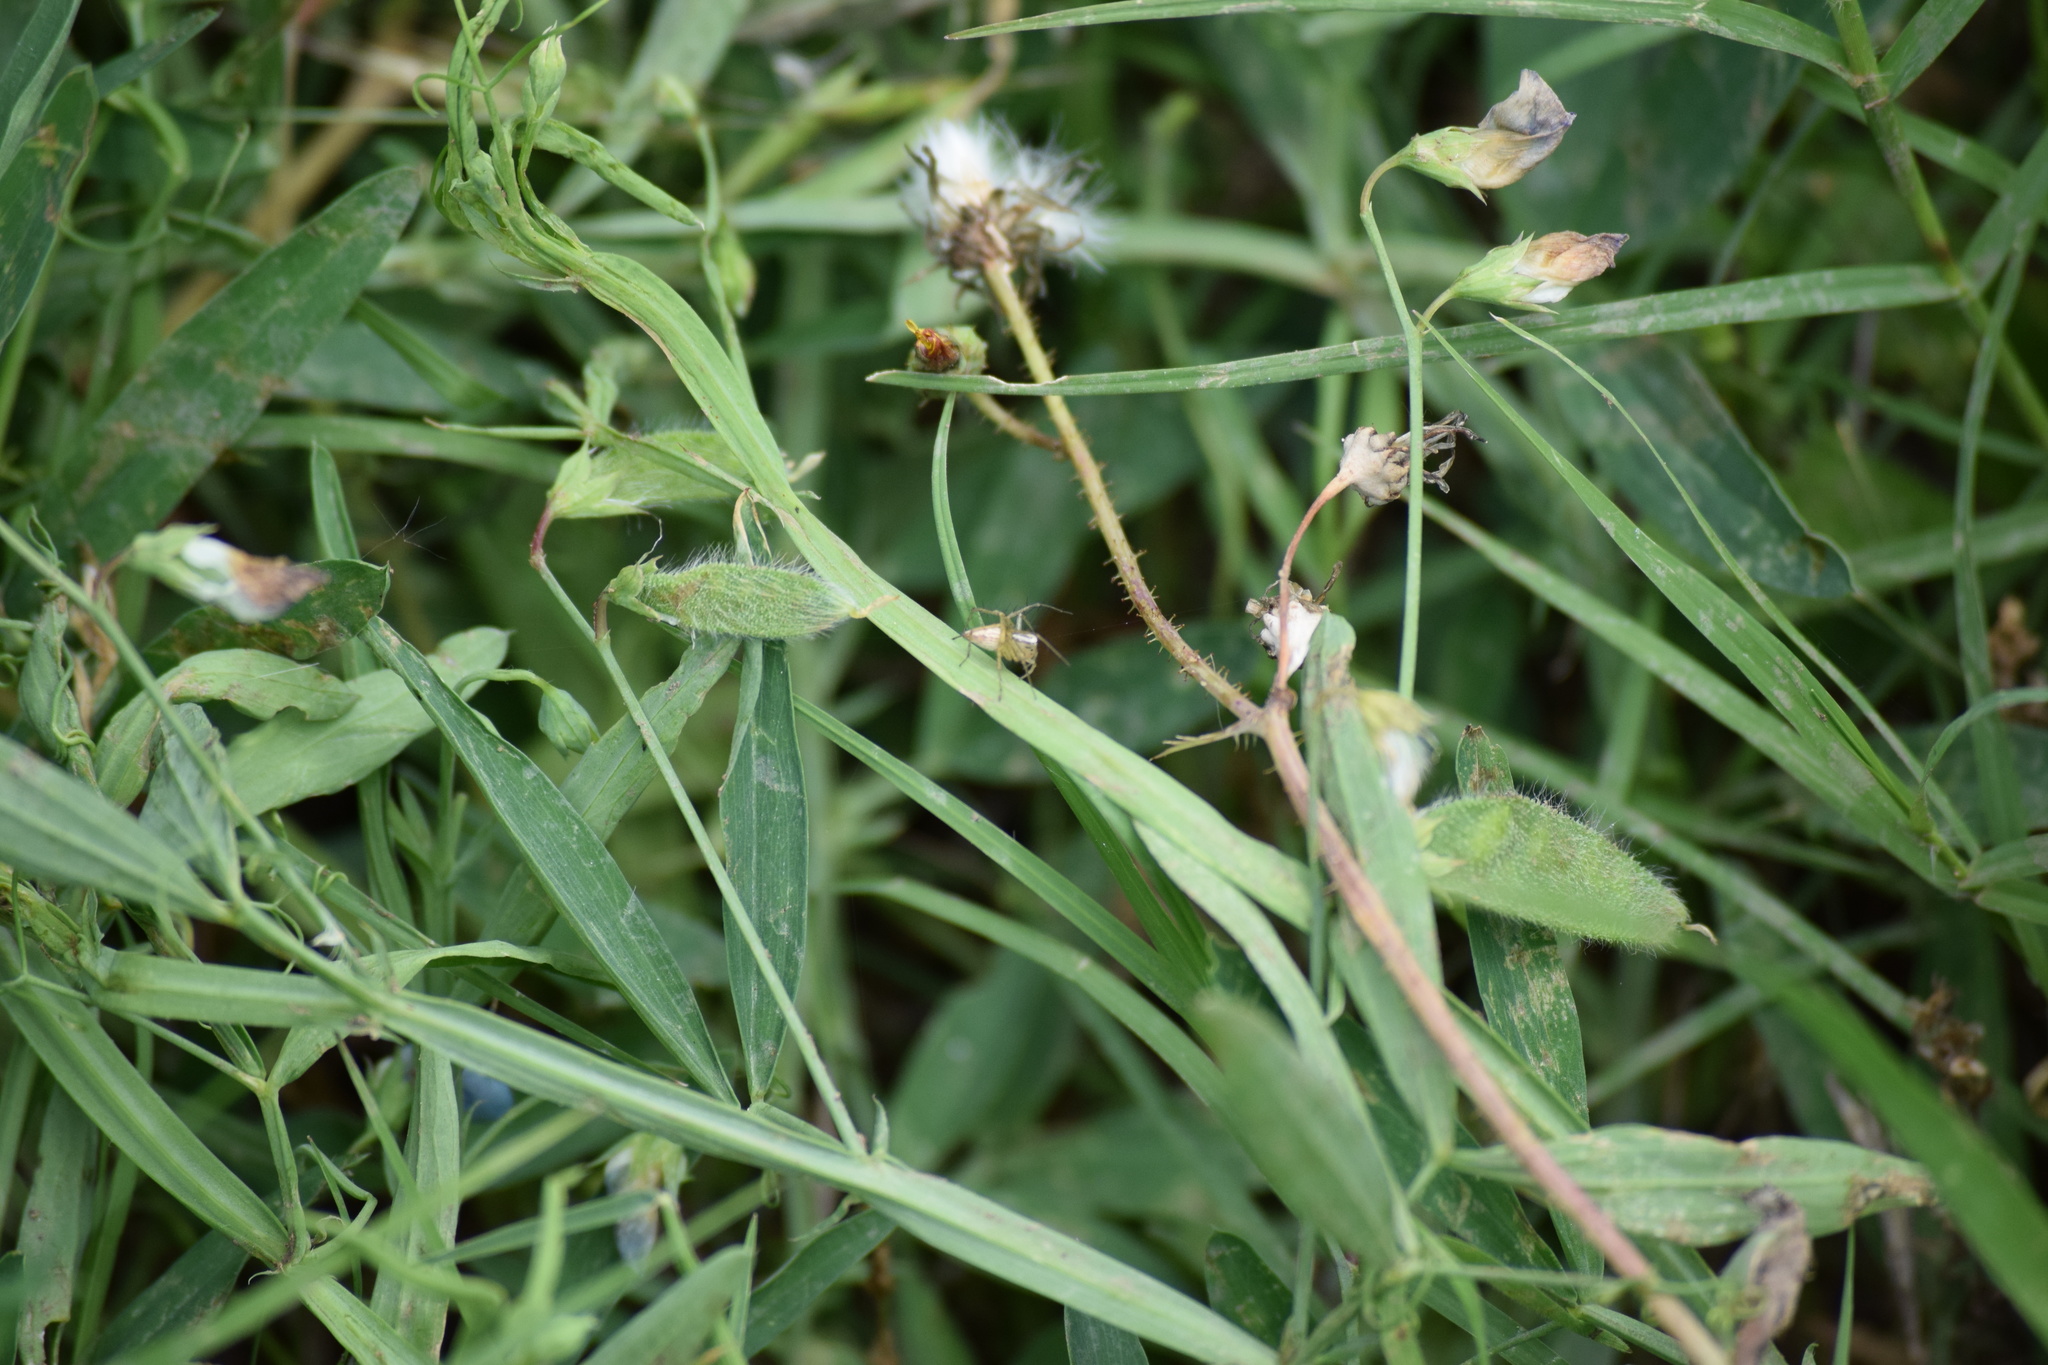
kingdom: Animalia
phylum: Arthropoda
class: Arachnida
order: Araneae
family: Oxyopidae
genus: Oxyopes
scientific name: Oxyopes salticus
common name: Lynx spiders
